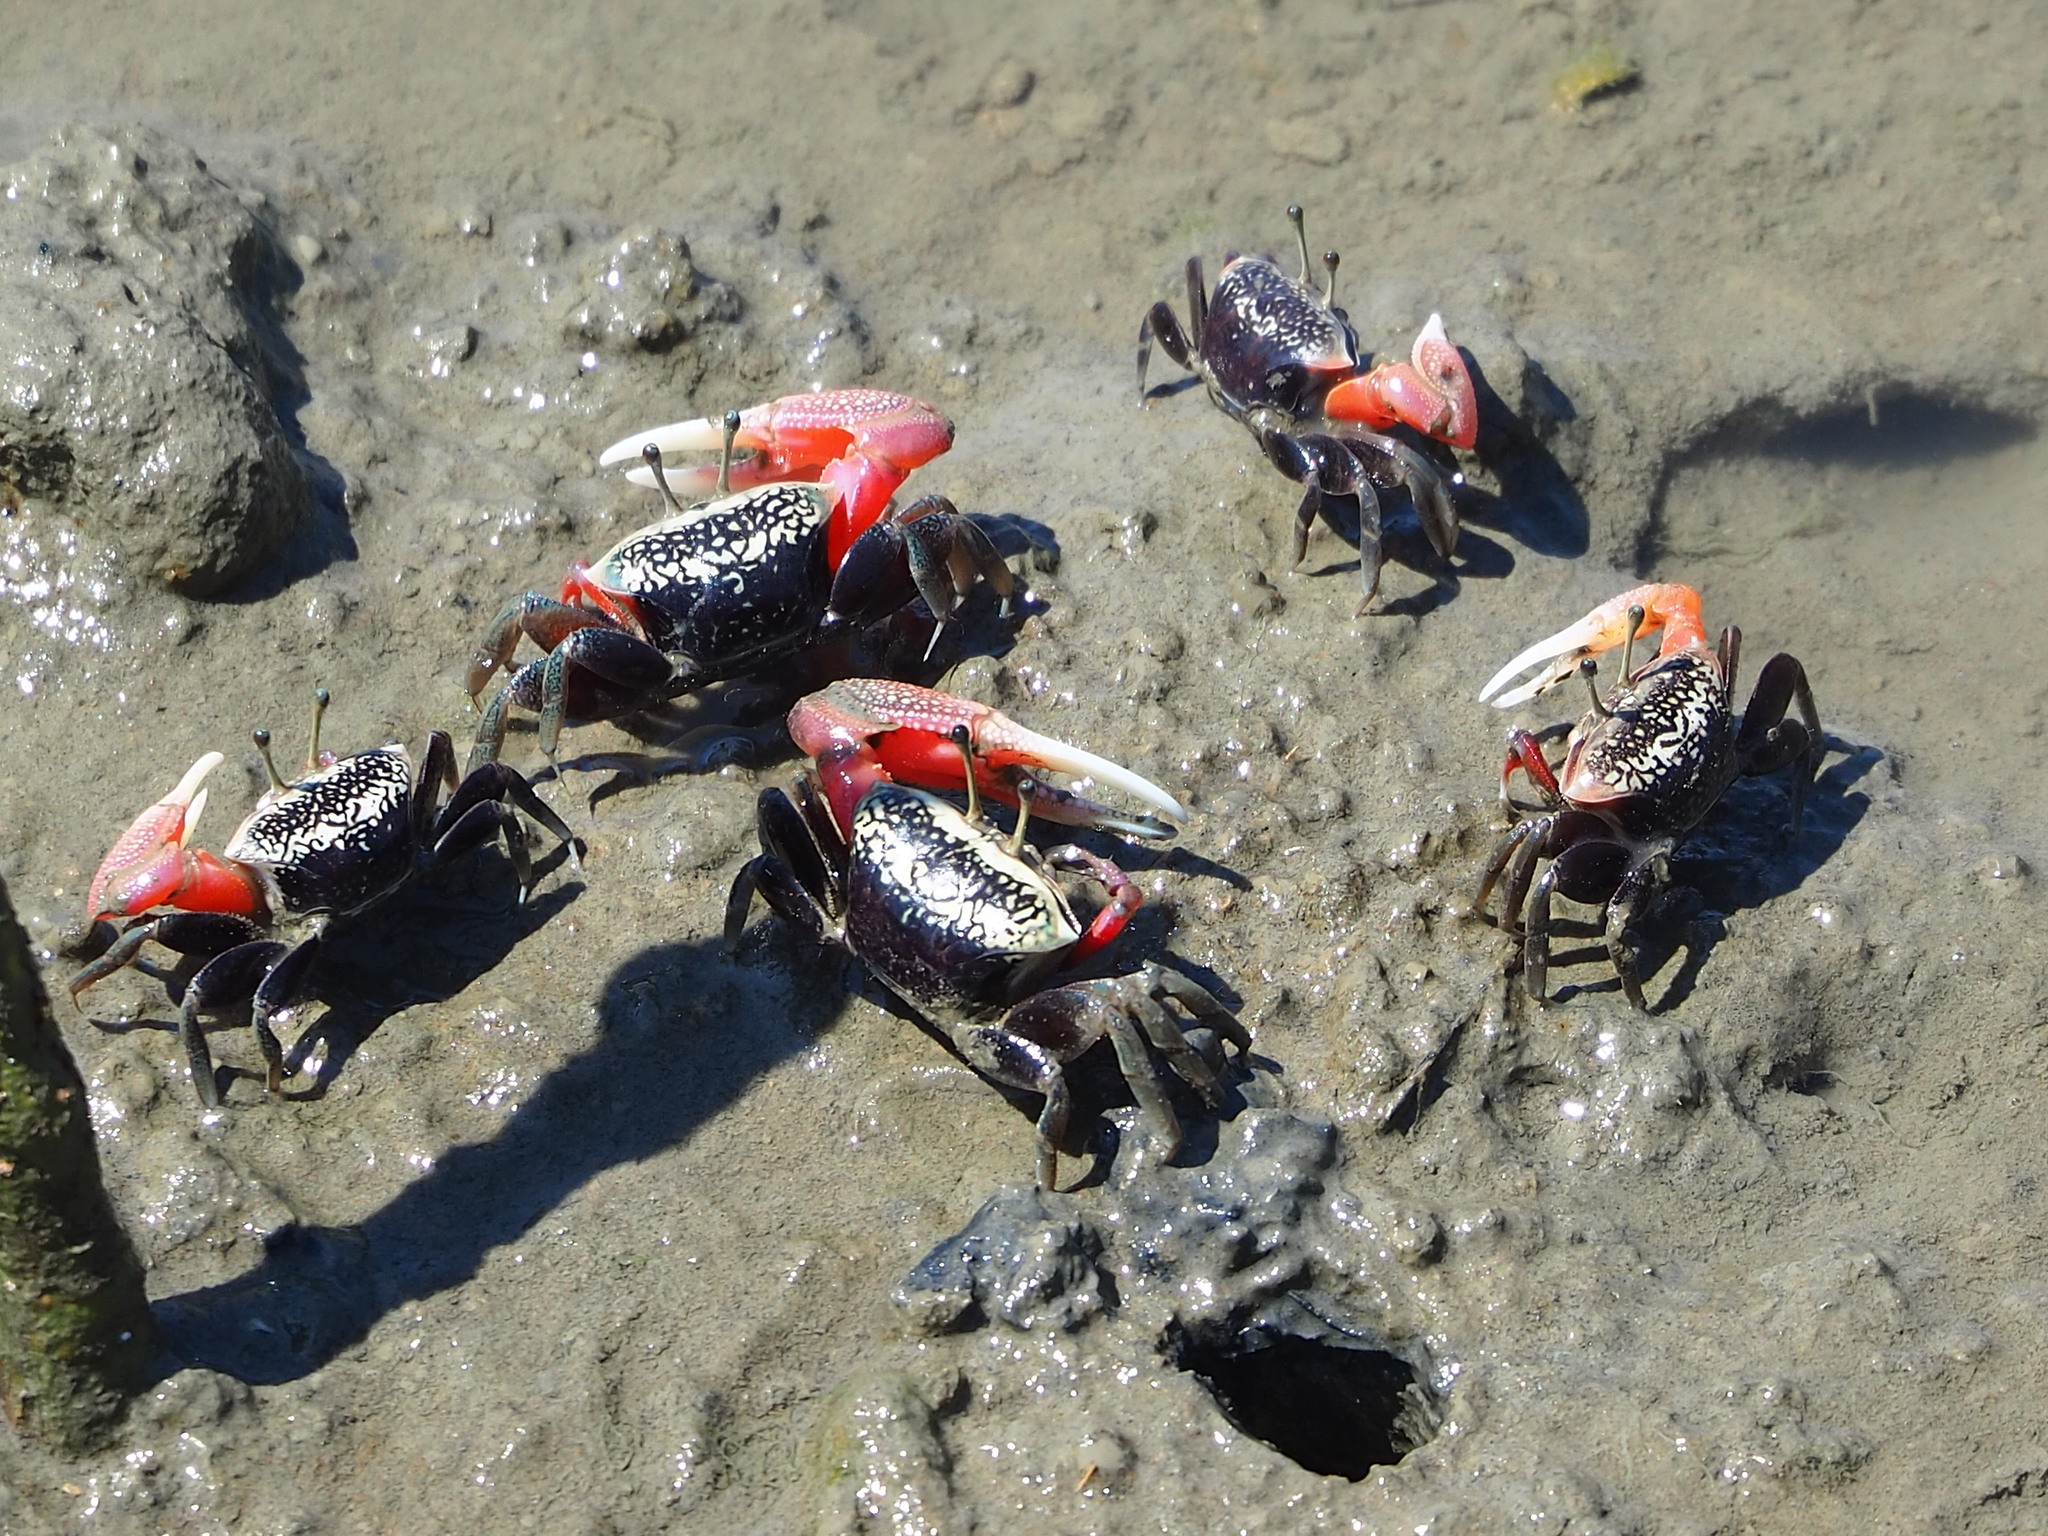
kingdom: Animalia
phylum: Arthropoda
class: Malacostraca
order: Decapoda
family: Ocypodidae
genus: Tubuca
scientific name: Tubuca arcuata
